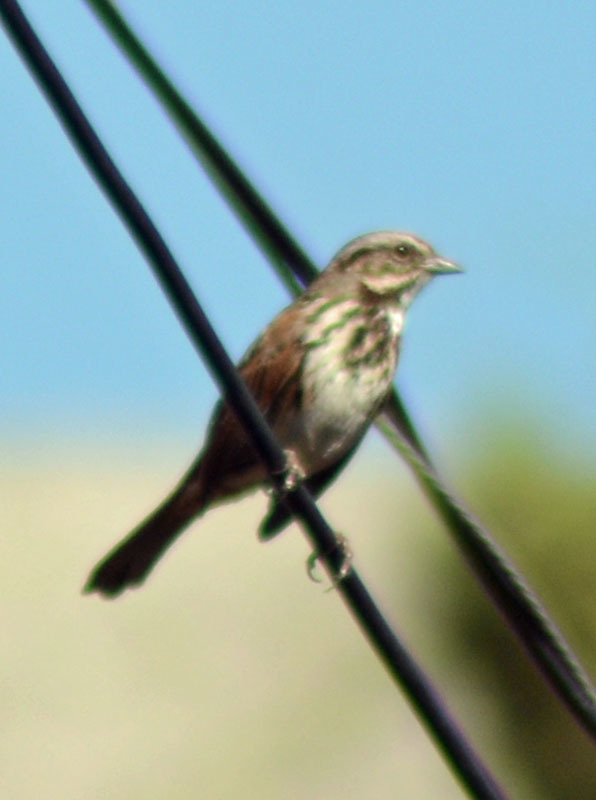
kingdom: Animalia
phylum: Chordata
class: Aves
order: Passeriformes
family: Passerellidae
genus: Melospiza
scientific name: Melospiza melodia
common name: Song sparrow
